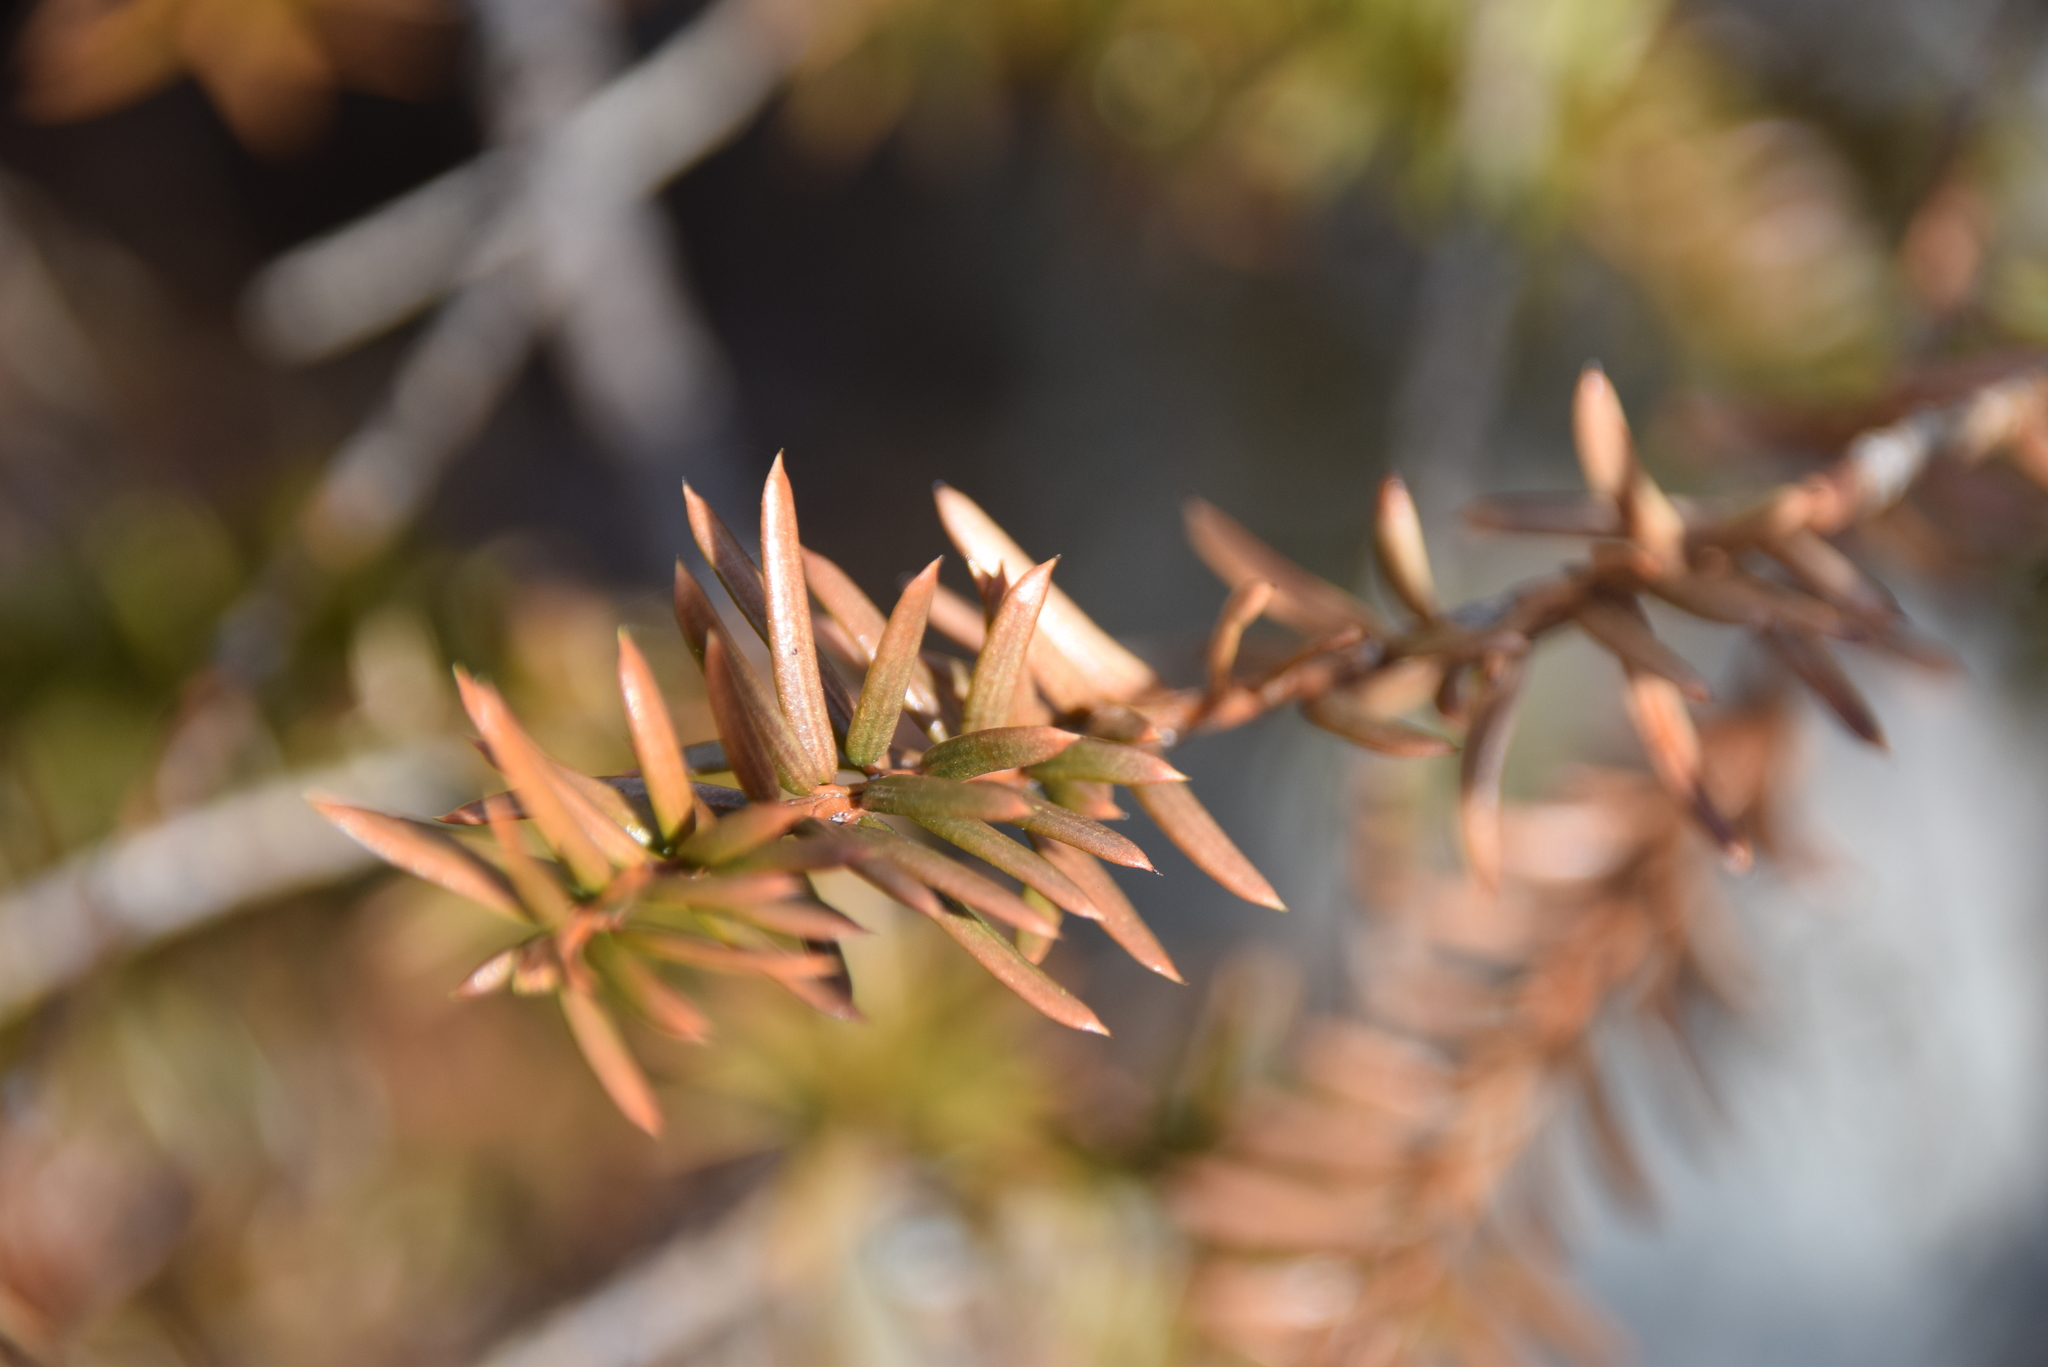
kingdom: Plantae
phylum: Tracheophyta
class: Pinopsida
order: Pinales
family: Taxaceae
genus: Taxus
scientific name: Taxus canadensis
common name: American yew
